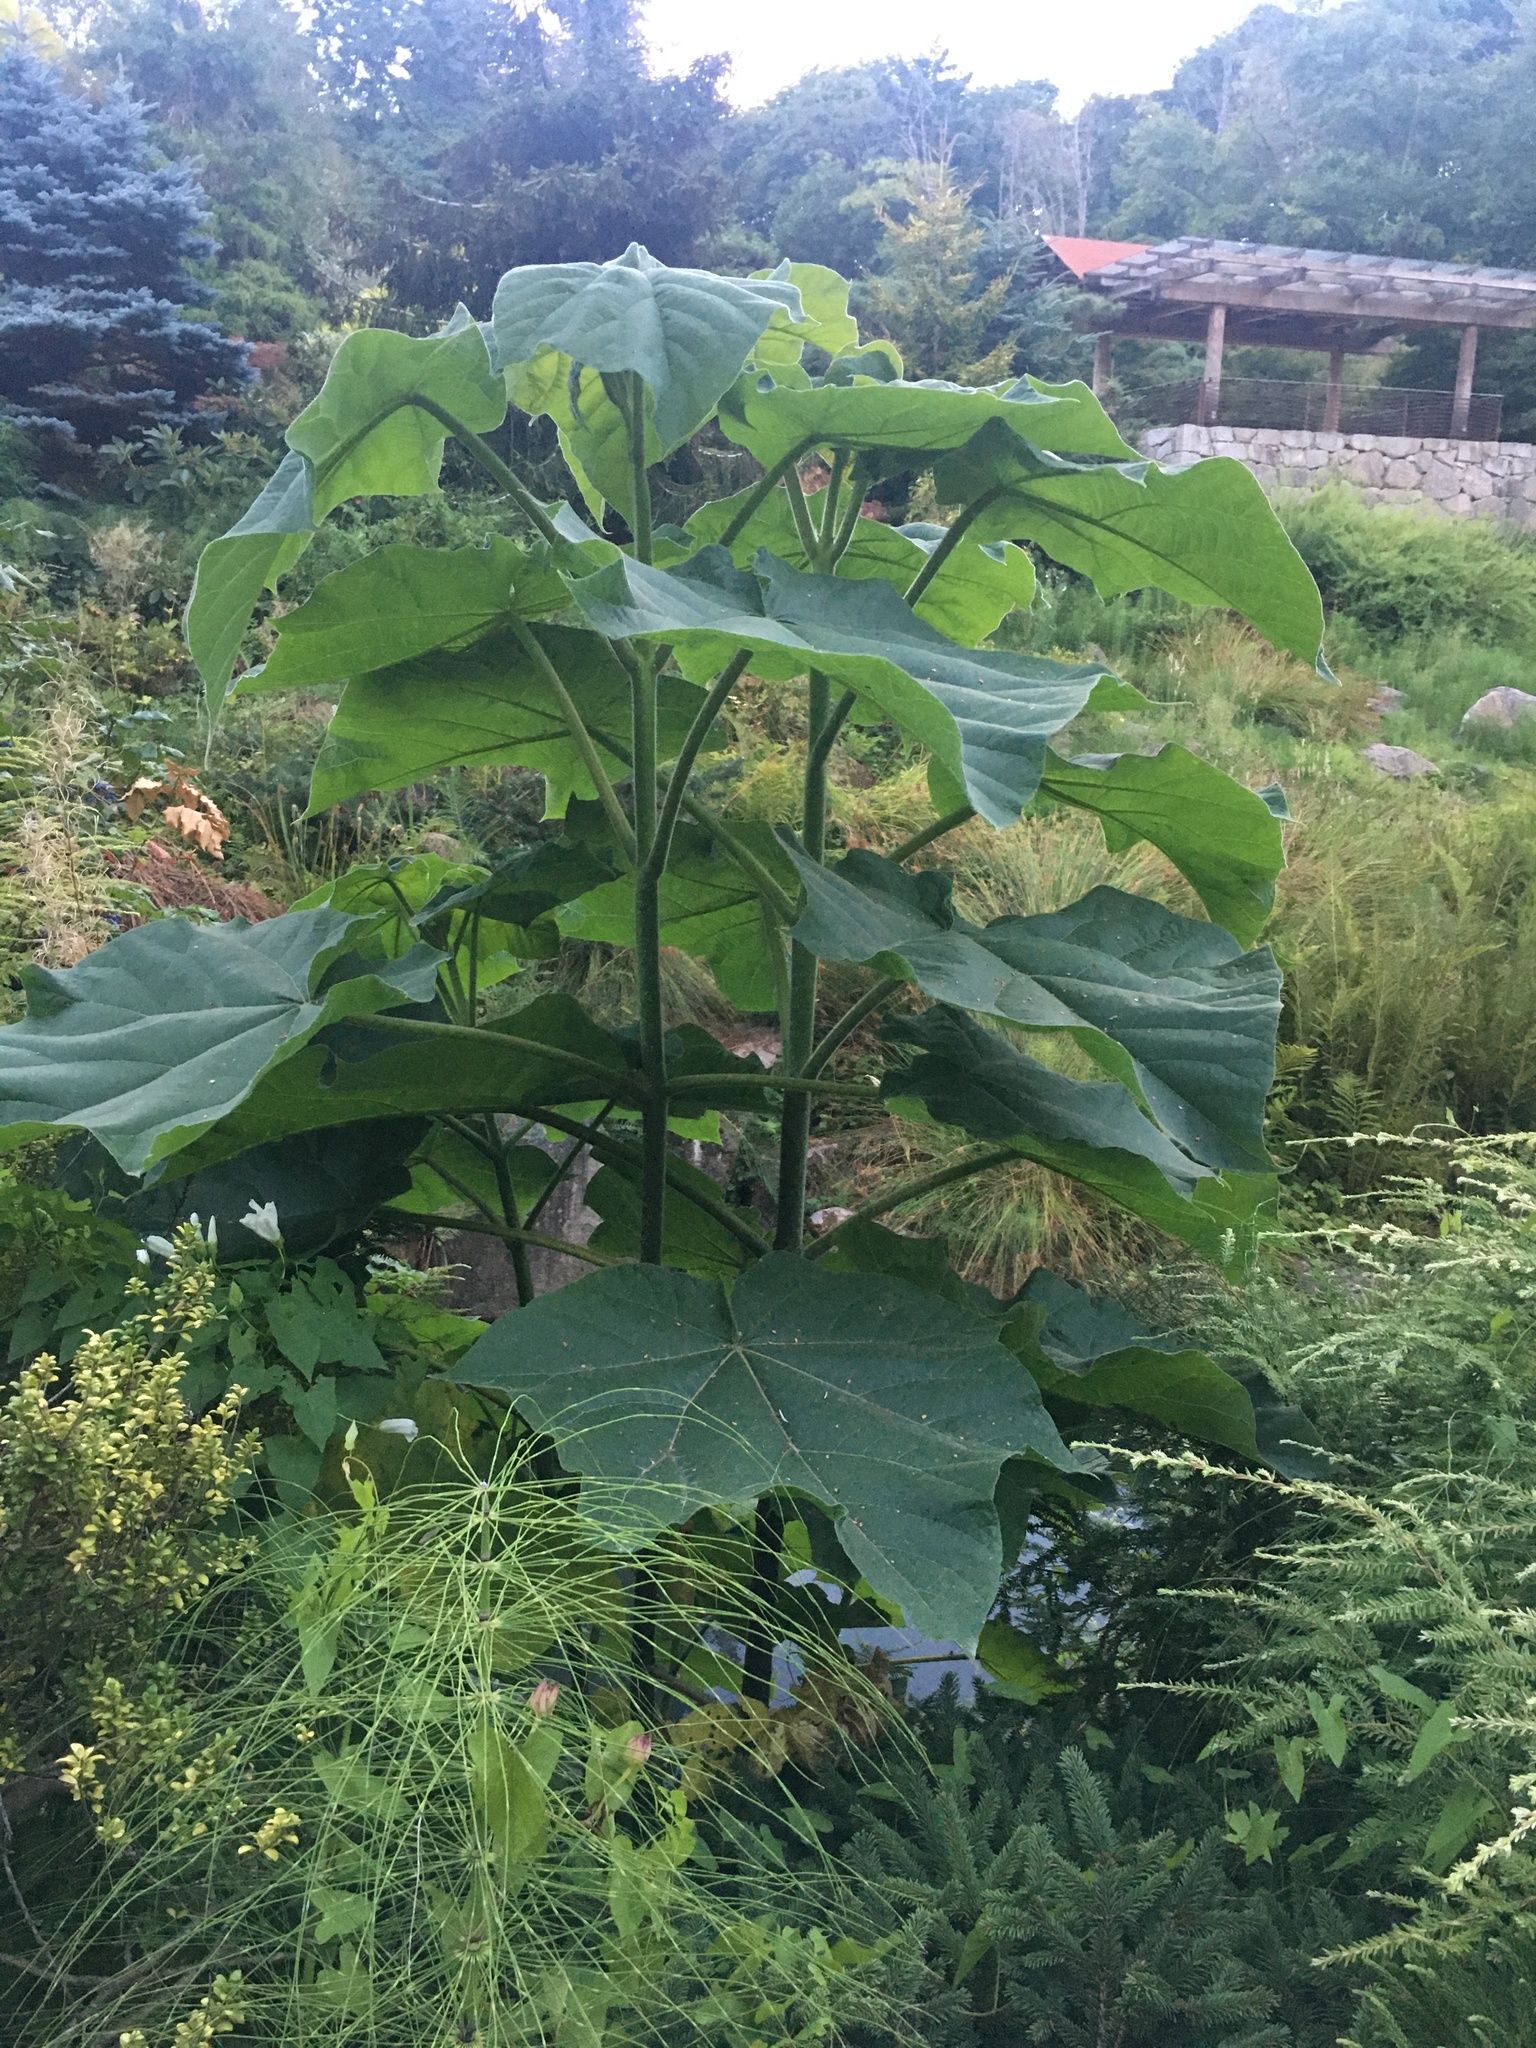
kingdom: Plantae
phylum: Tracheophyta
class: Magnoliopsida
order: Lamiales
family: Paulowniaceae
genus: Paulownia
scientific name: Paulownia tomentosa
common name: Foxglove-tree
